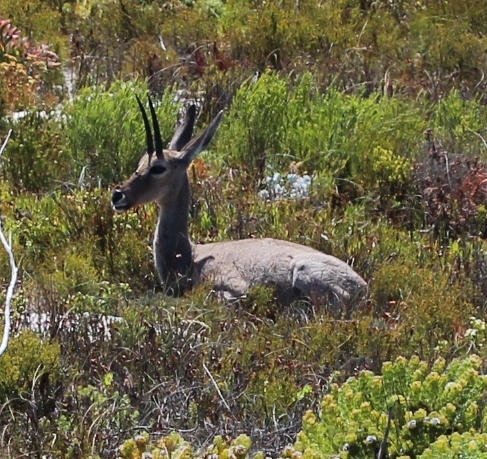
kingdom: Animalia
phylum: Chordata
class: Mammalia
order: Artiodactyla
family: Bovidae
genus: Pelea
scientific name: Pelea capreolus
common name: Common rhebok
